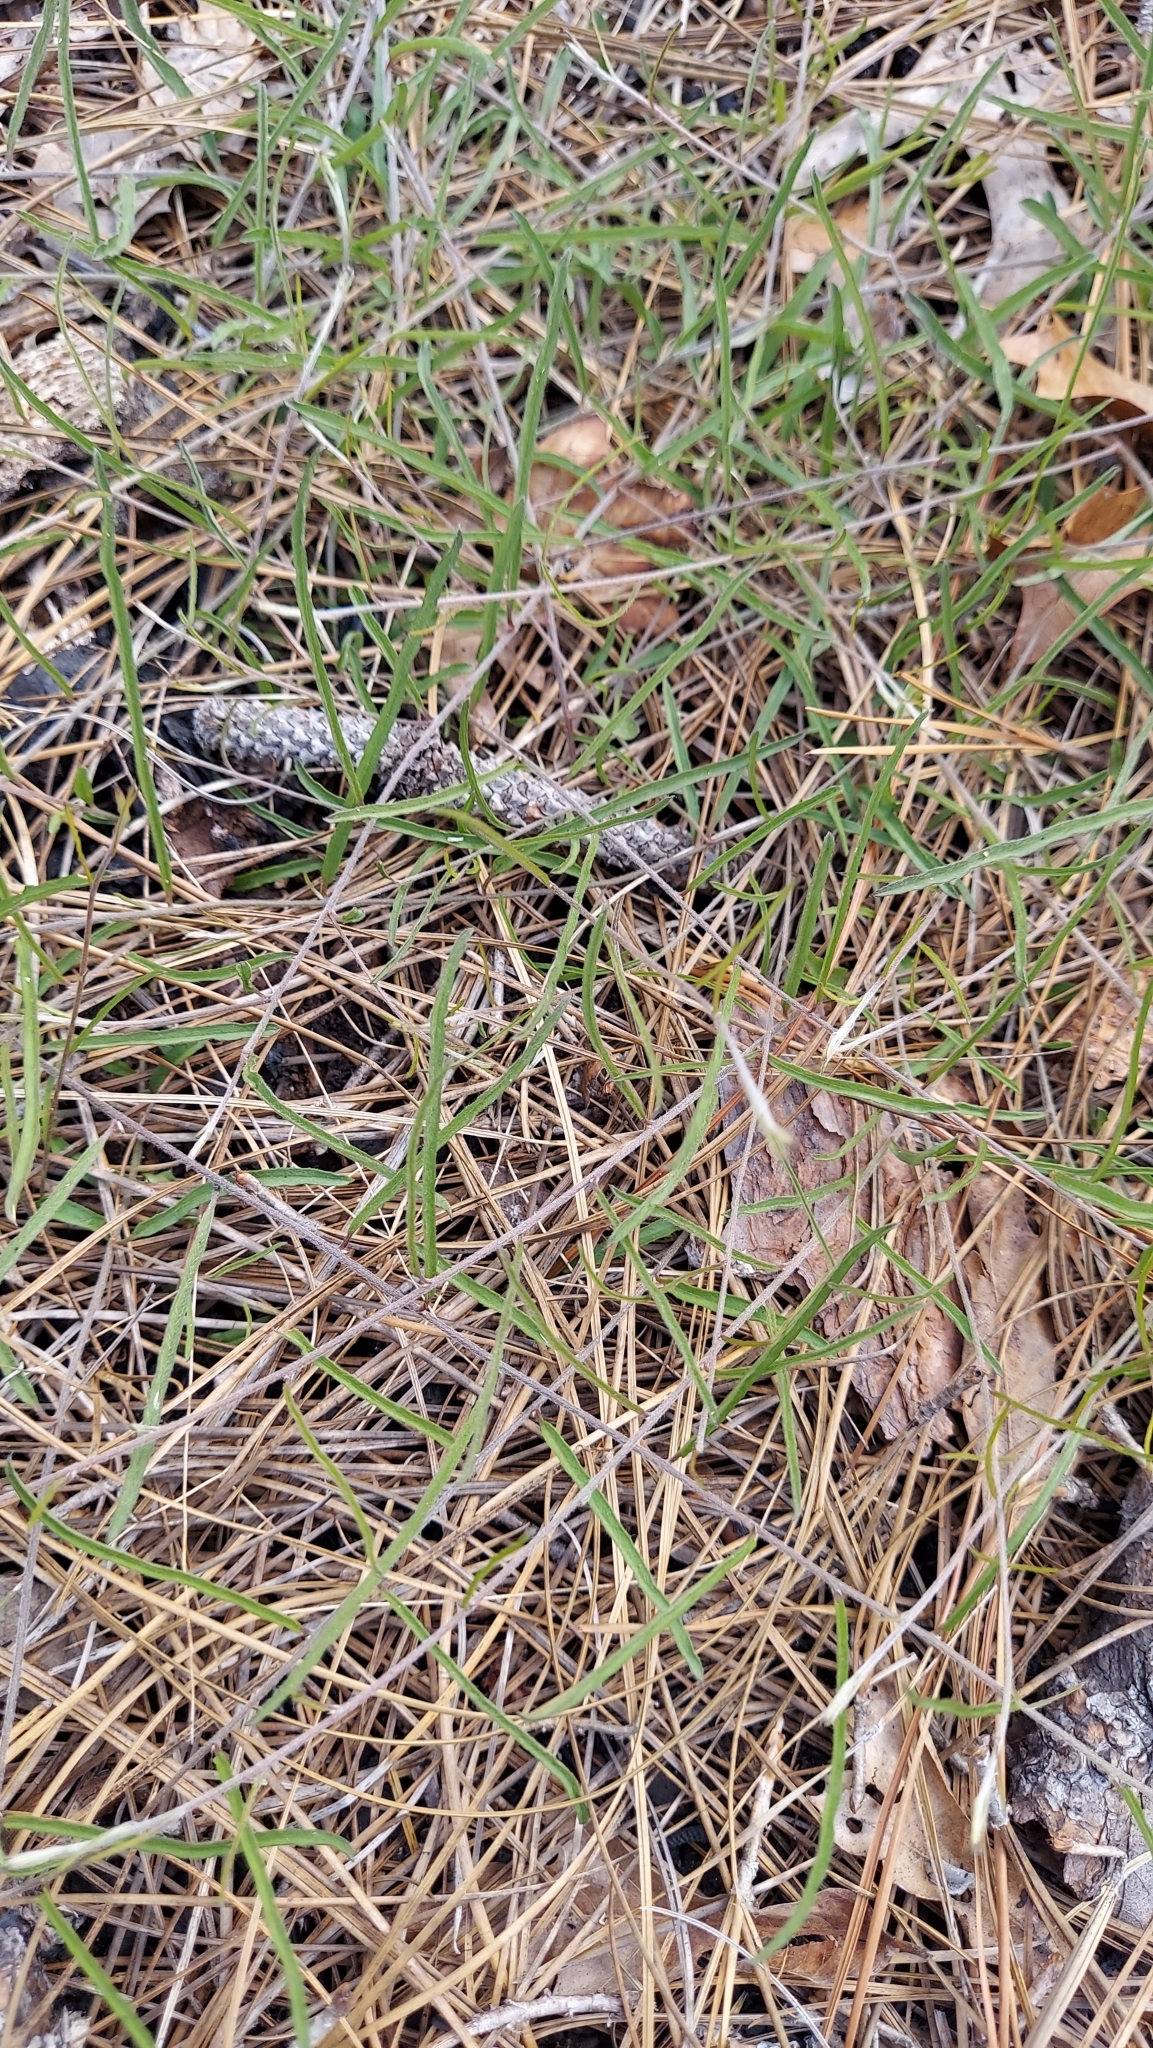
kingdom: Plantae
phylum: Tracheophyta
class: Magnoliopsida
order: Solanales
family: Convolvulaceae
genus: Stylisma
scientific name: Stylisma patens
